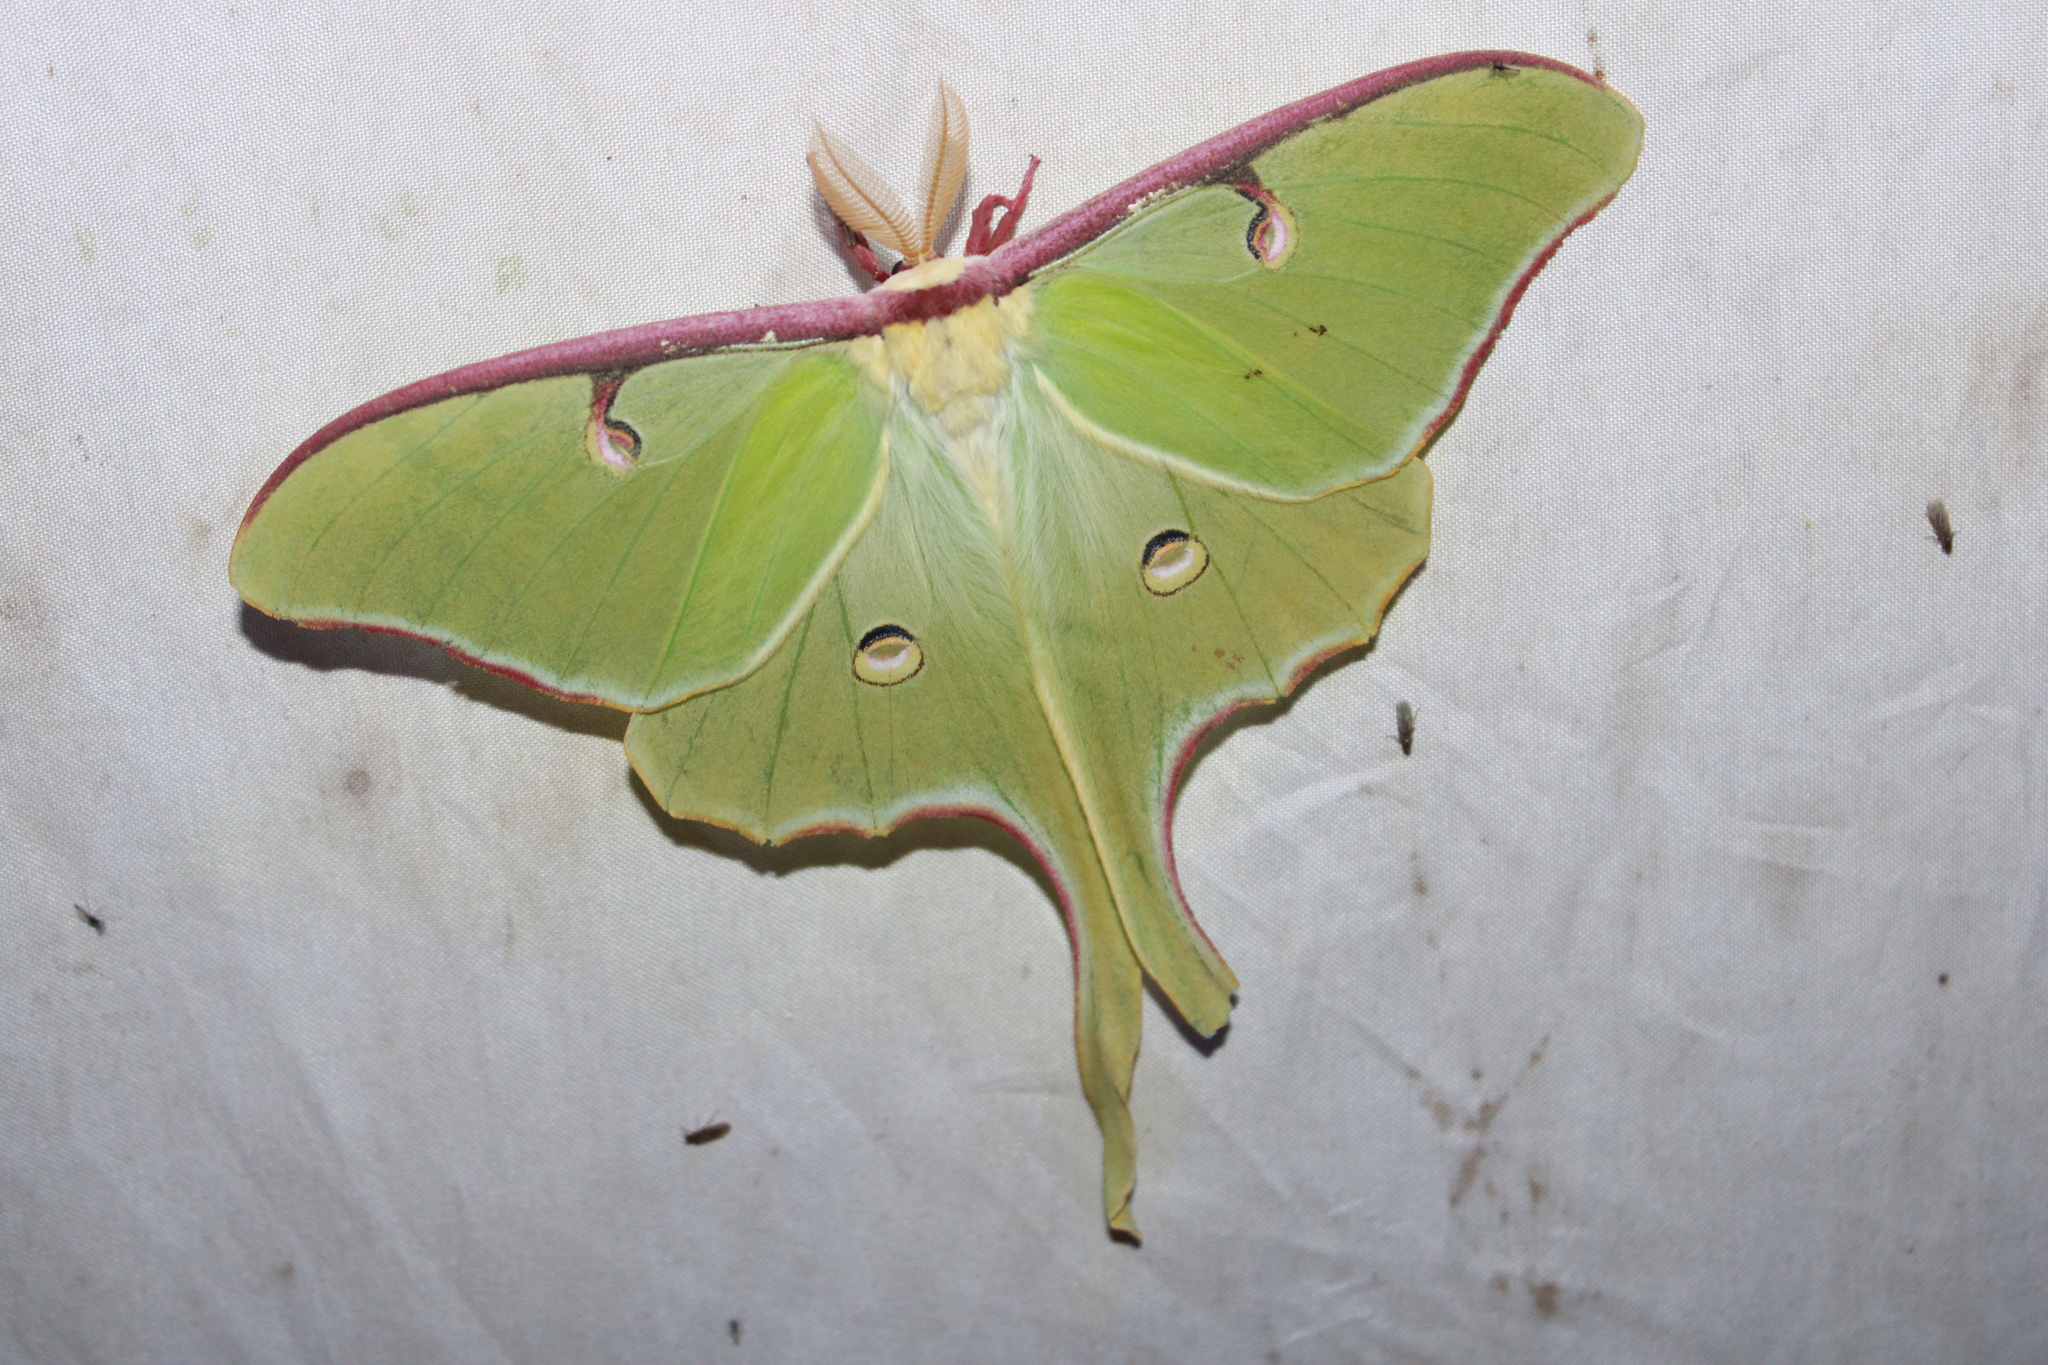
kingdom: Animalia
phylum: Arthropoda
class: Insecta
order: Lepidoptera
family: Saturniidae
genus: Actias
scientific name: Actias luna
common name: Luna moth
